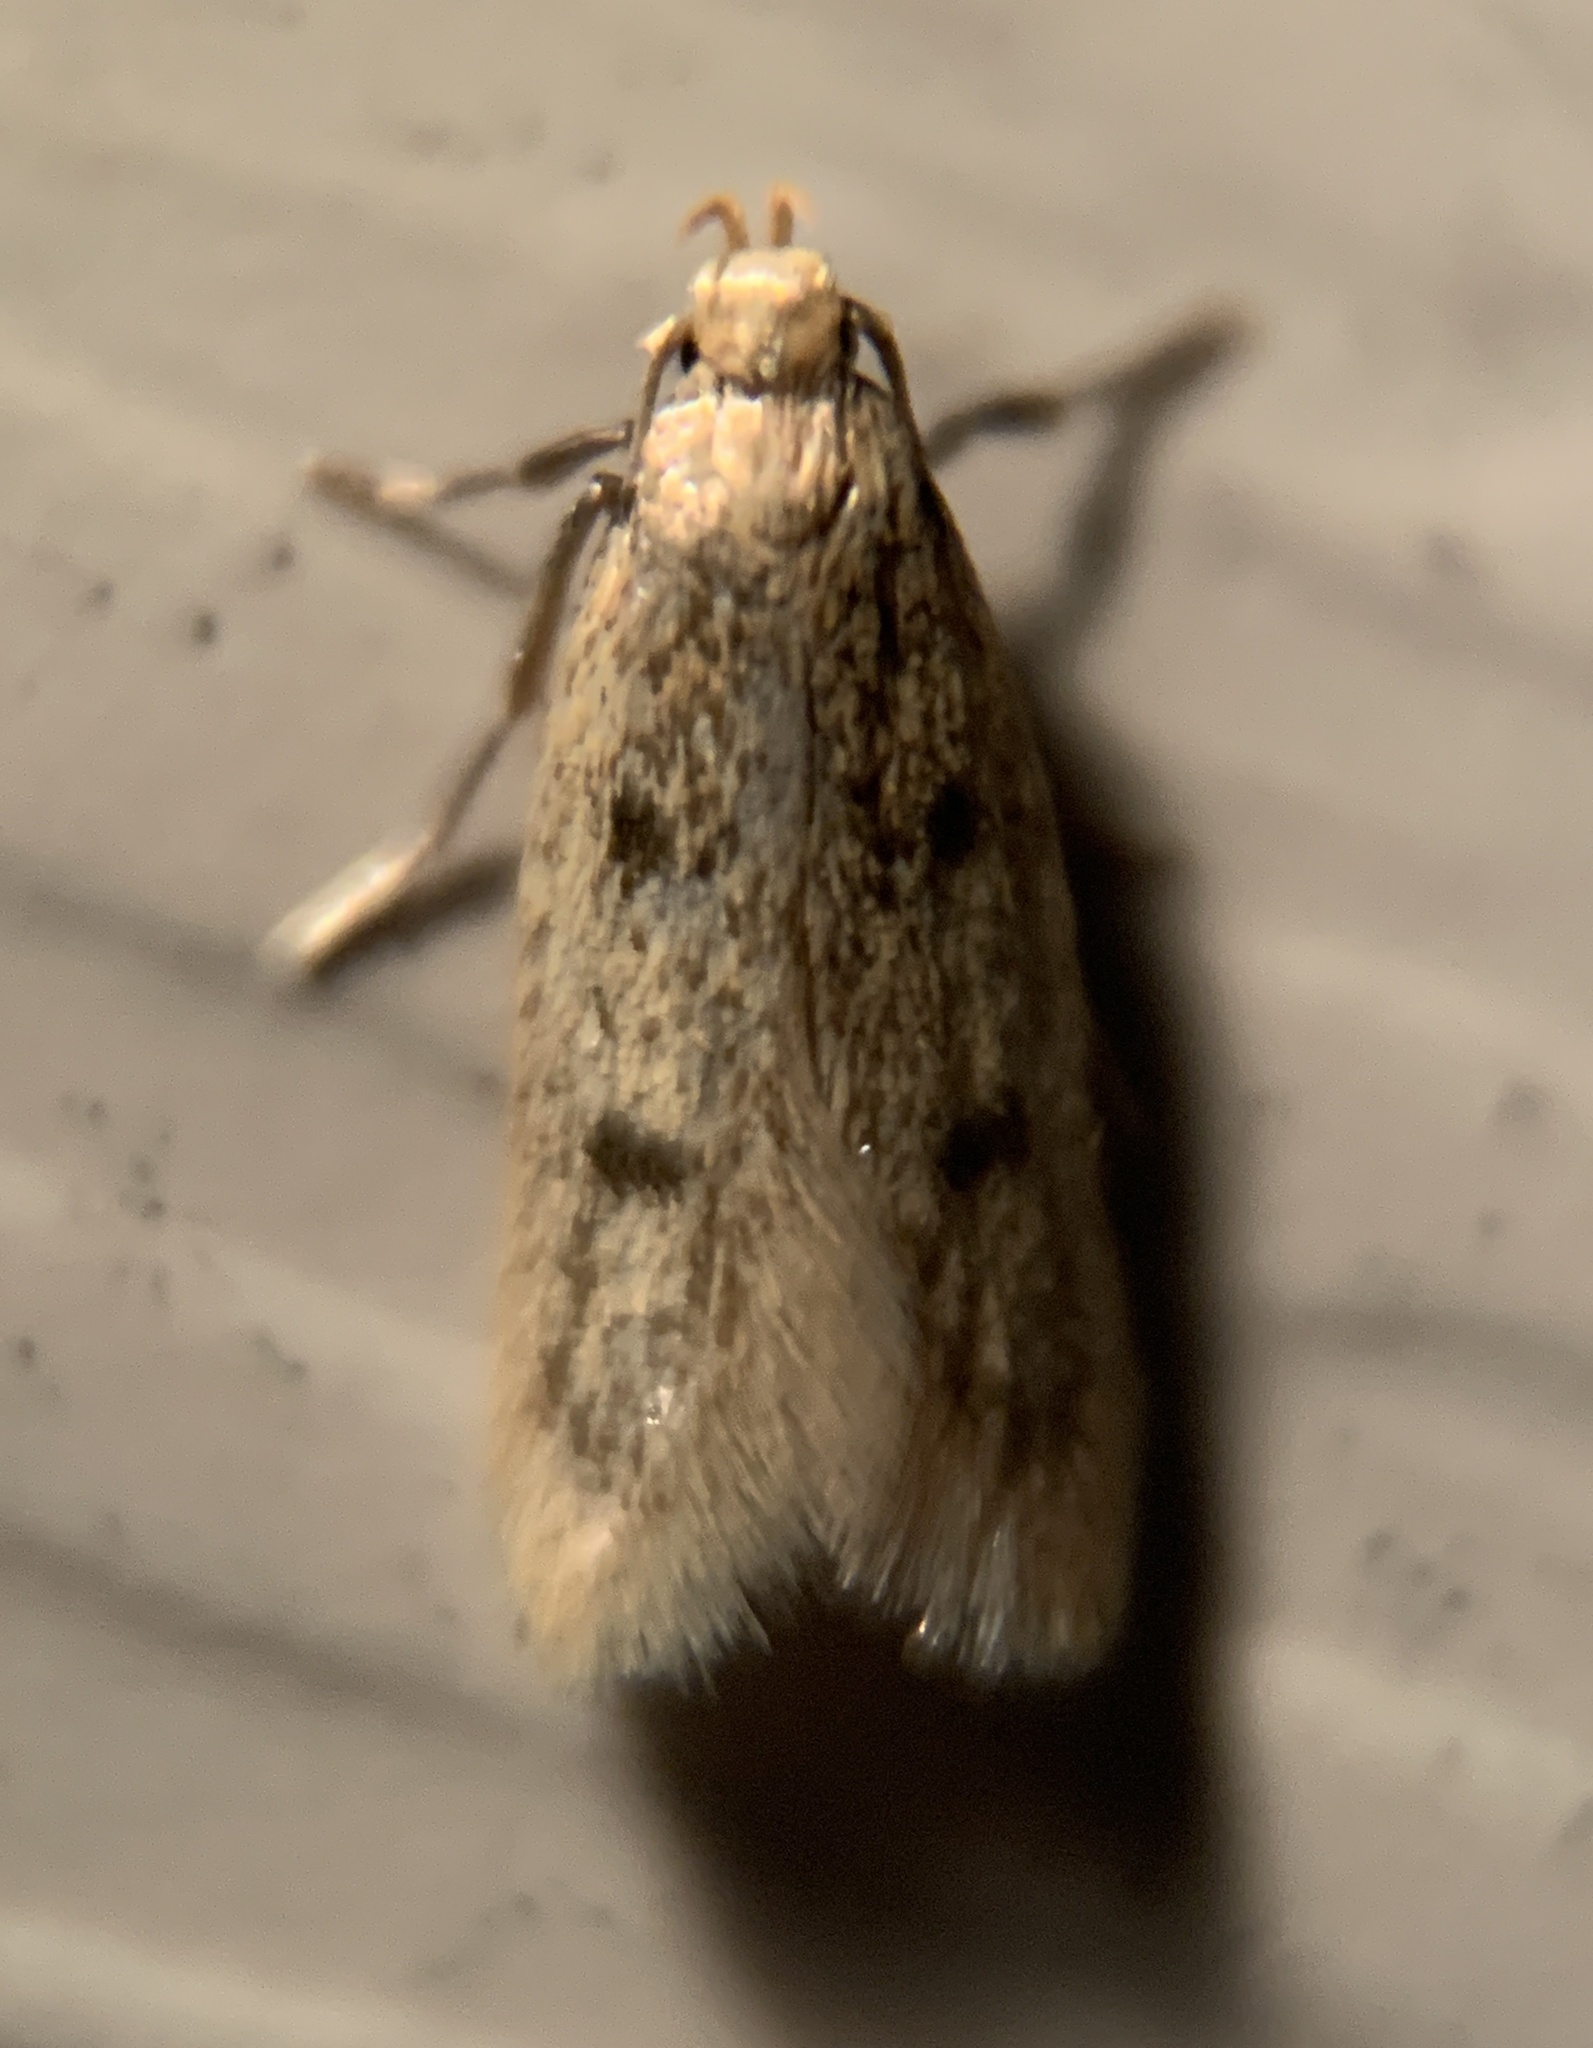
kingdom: Animalia
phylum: Arthropoda
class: Insecta
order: Lepidoptera
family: Oecophoridae
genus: Carolana
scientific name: Carolana ascriptella
